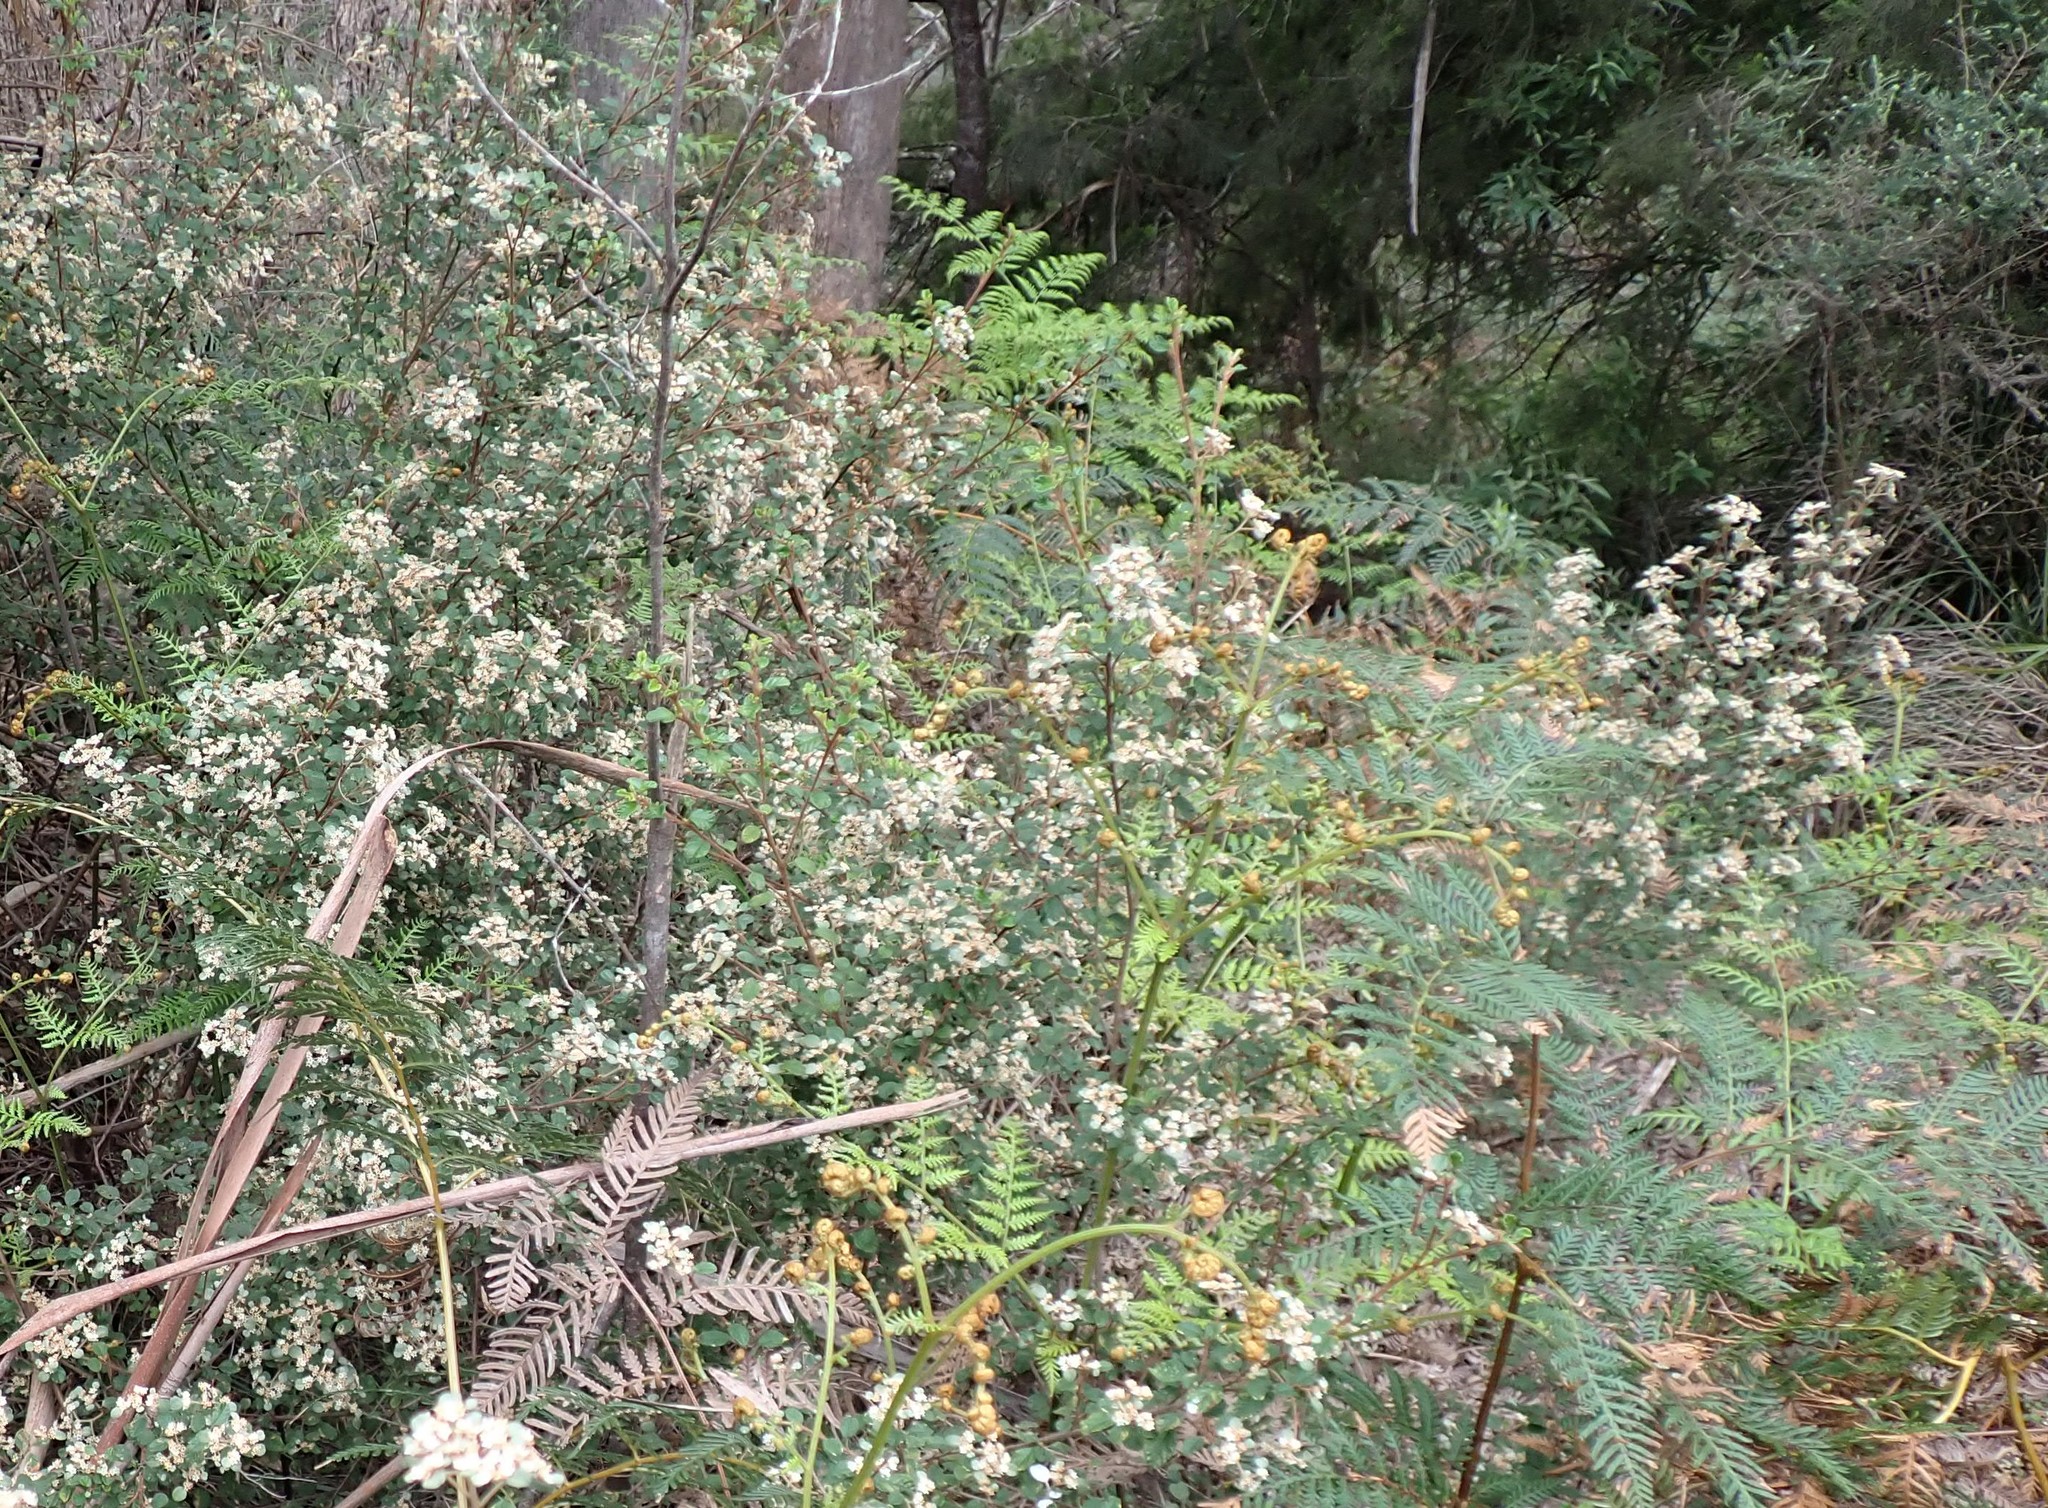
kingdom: Plantae
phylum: Tracheophyta
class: Magnoliopsida
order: Rosales
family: Rhamnaceae
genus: Spyridium
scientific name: Spyridium parvifolium
